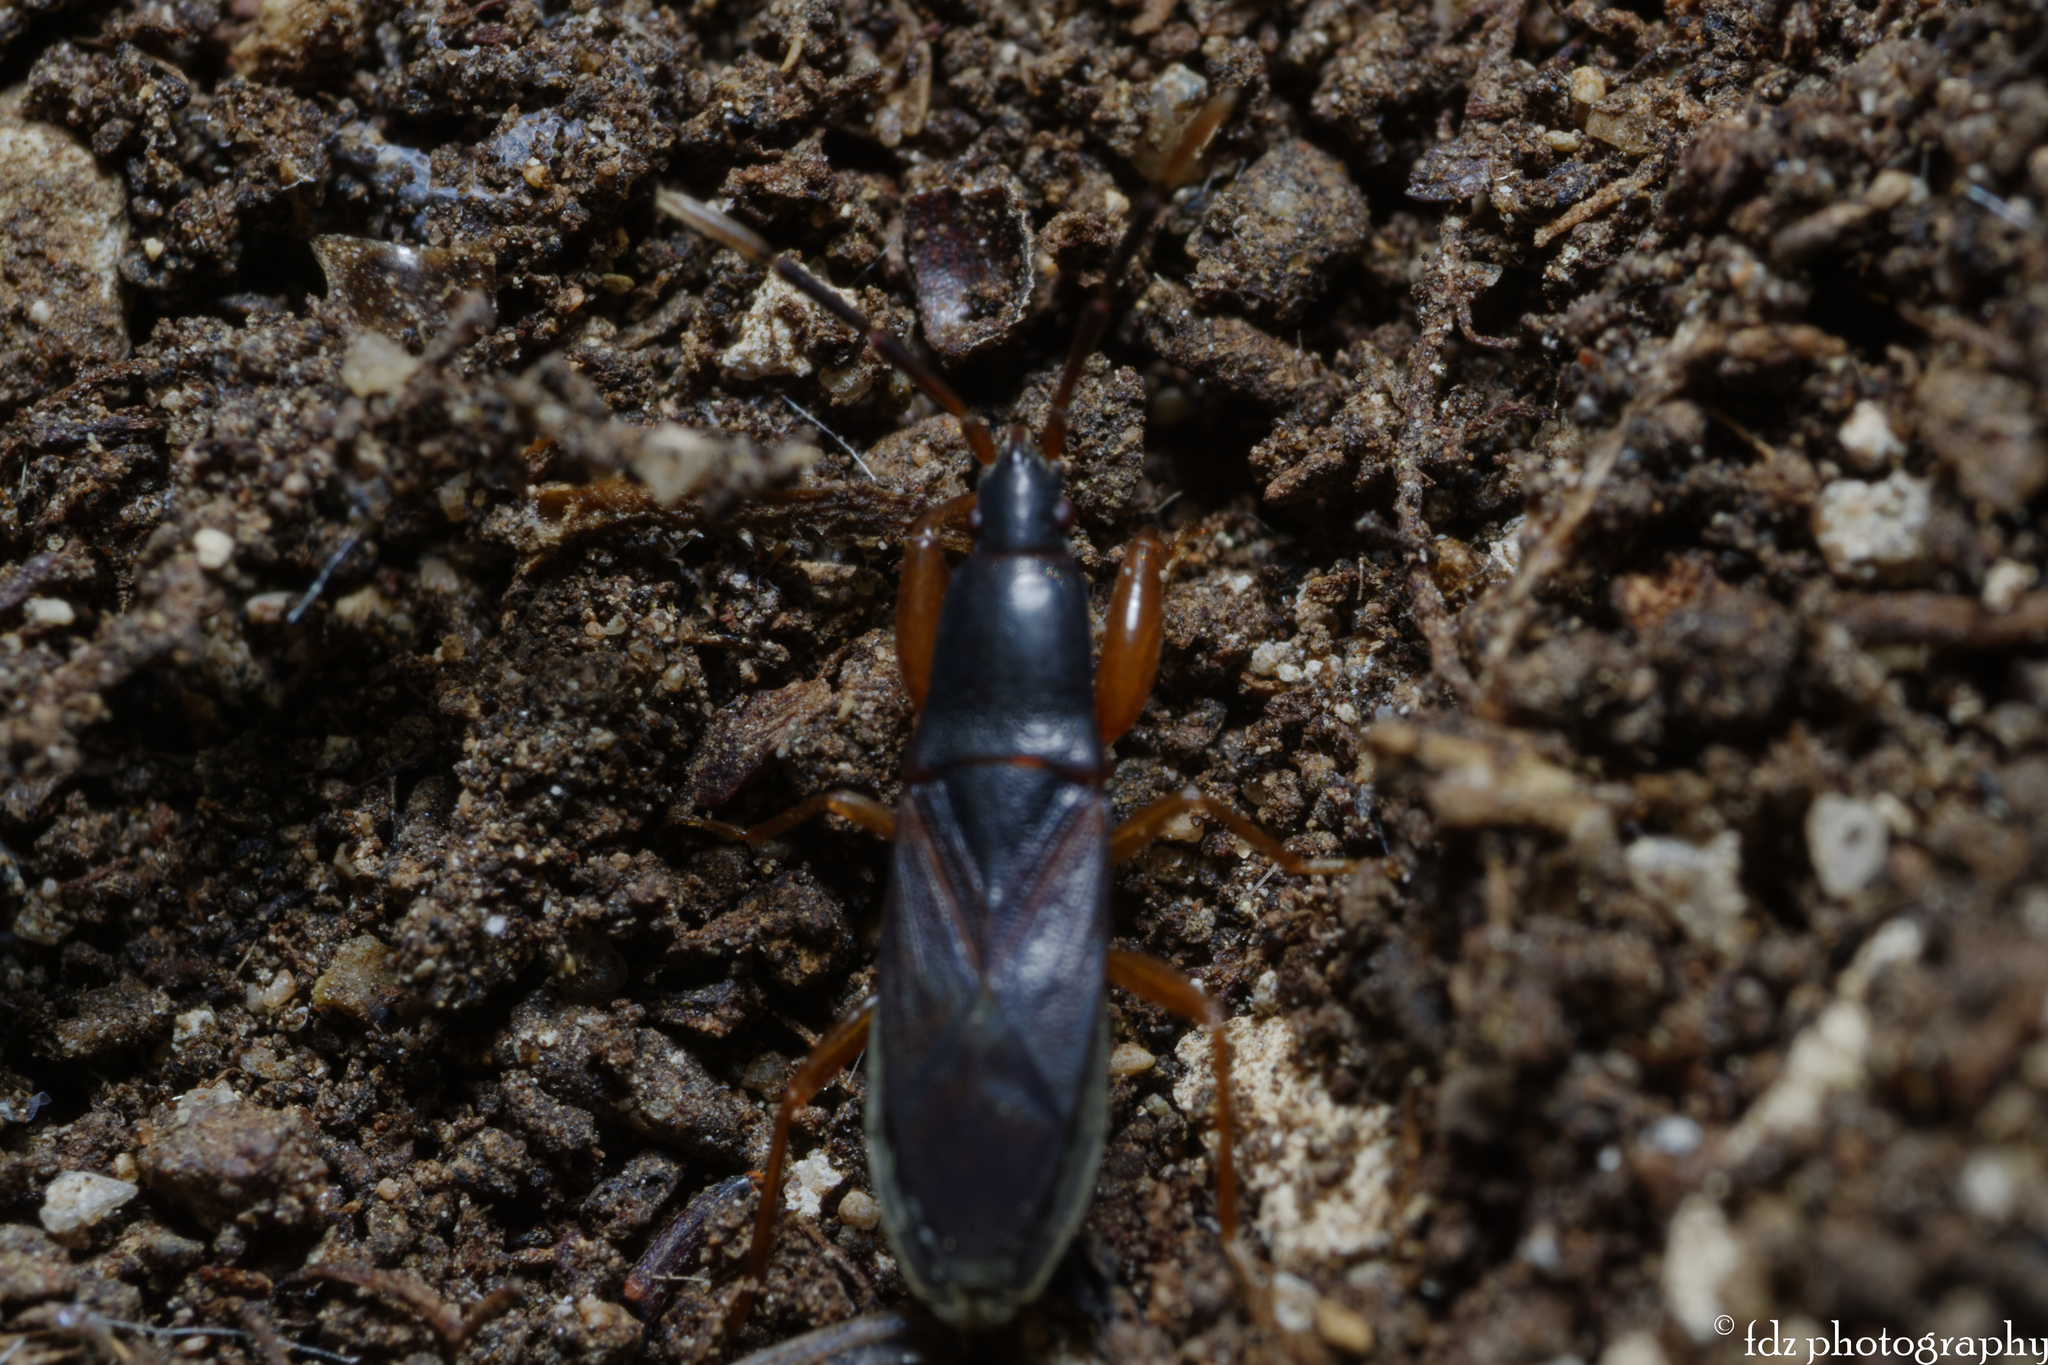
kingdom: Animalia
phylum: Arthropoda
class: Insecta
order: Hemiptera
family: Rhyparochromidae
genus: Proderus
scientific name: Proderus suberythropus
